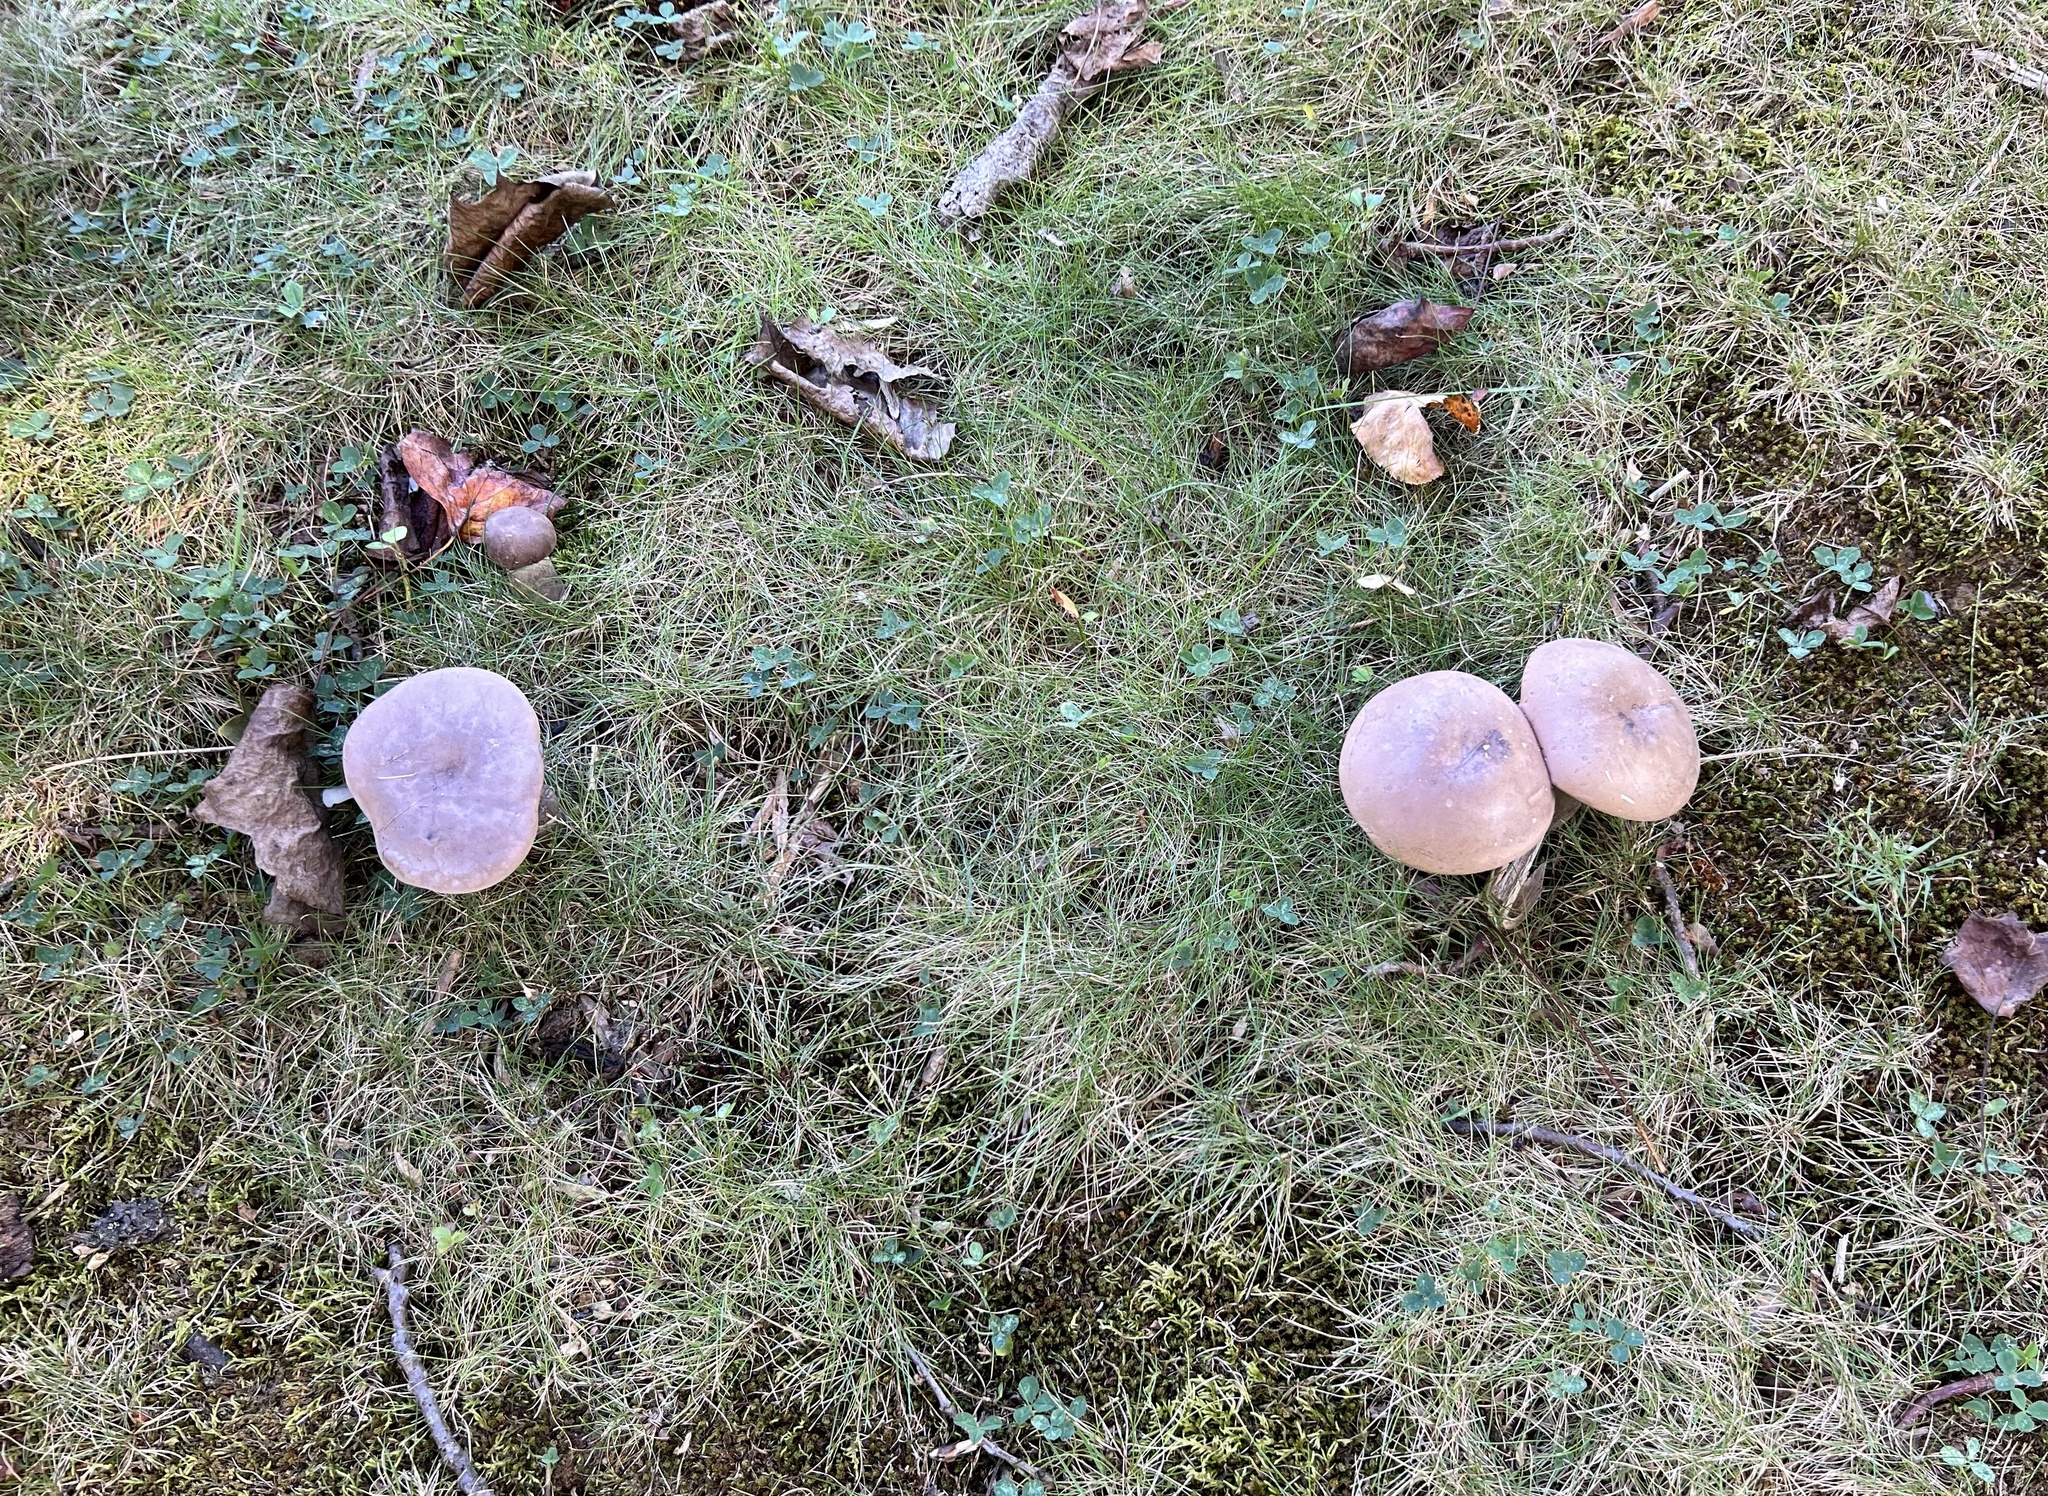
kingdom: Fungi
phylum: Basidiomycota
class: Agaricomycetes
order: Boletales
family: Boletaceae
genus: Tylopilus
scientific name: Tylopilus plumbeoviolaceus
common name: Violet gray bolete
